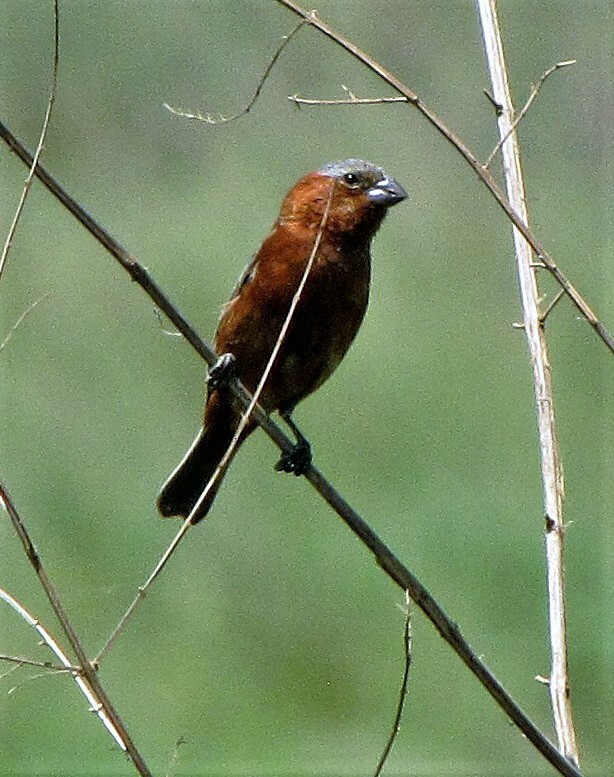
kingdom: Animalia
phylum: Chordata
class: Aves
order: Passeriformes
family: Thraupidae
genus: Sporophila
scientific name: Sporophila cinnamomea
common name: Chestnut seedeater
